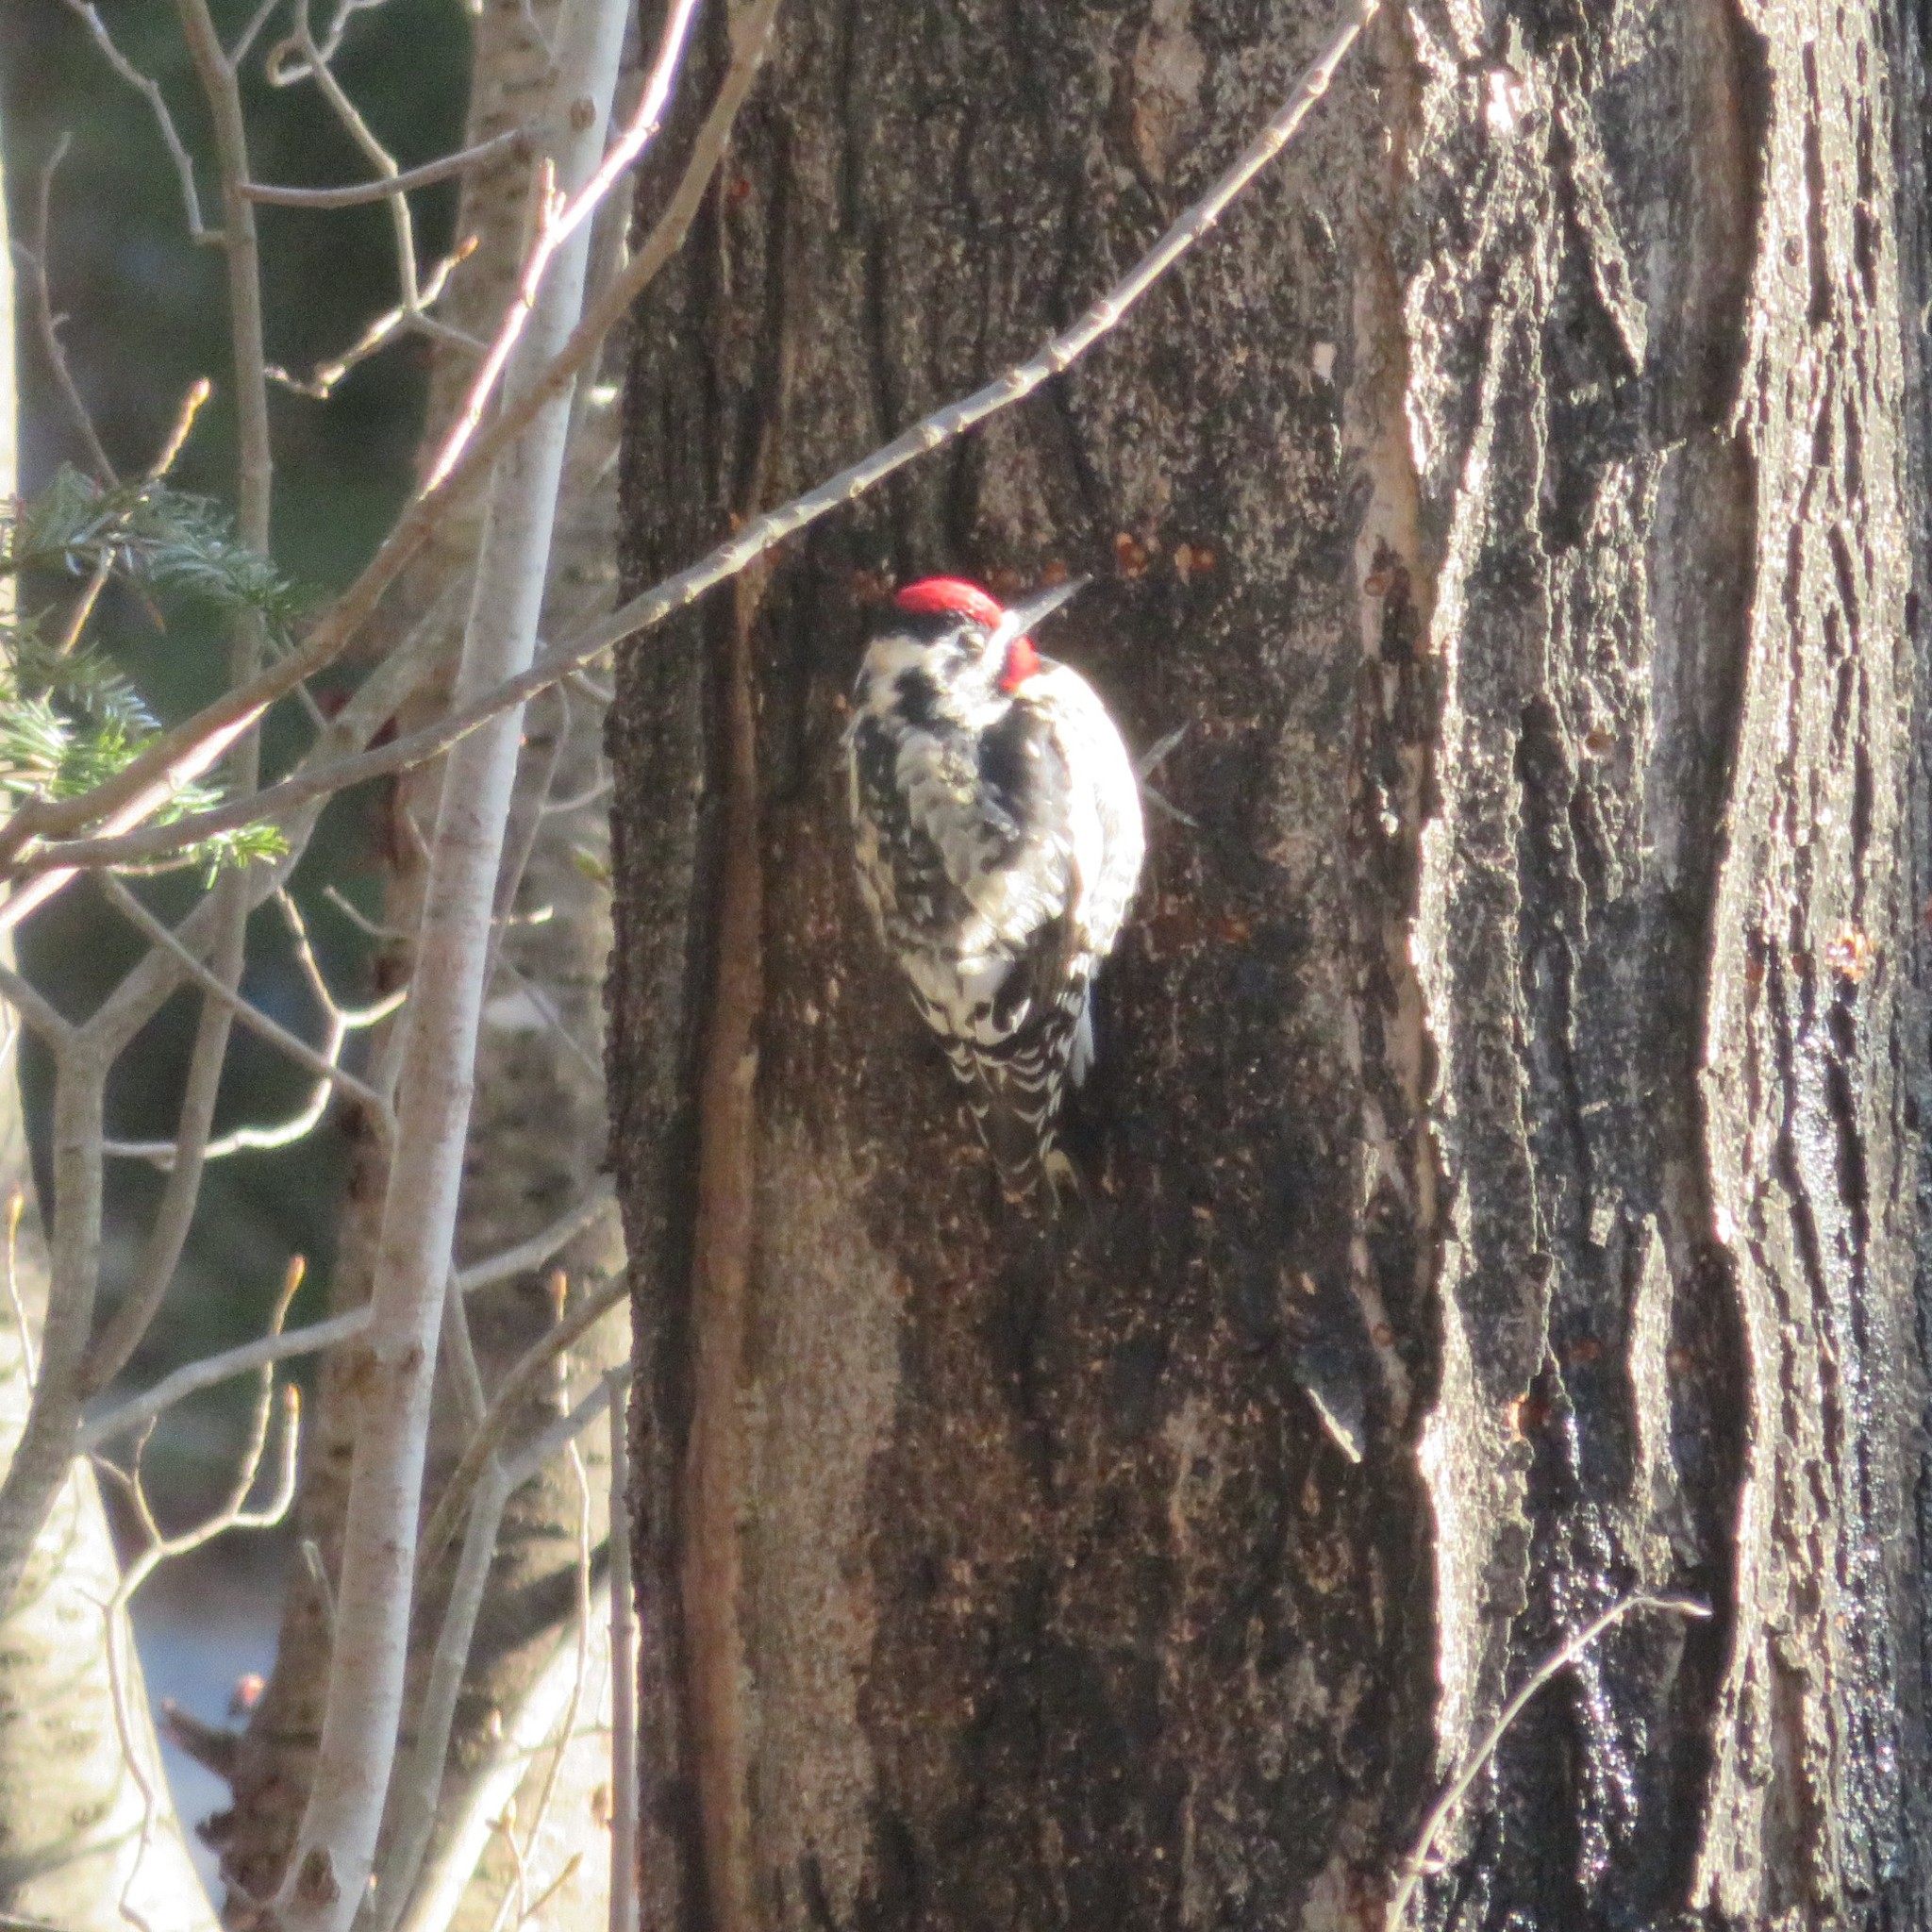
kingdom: Animalia
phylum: Chordata
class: Aves
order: Piciformes
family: Picidae
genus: Sphyrapicus
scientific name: Sphyrapicus varius
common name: Yellow-bellied sapsucker
